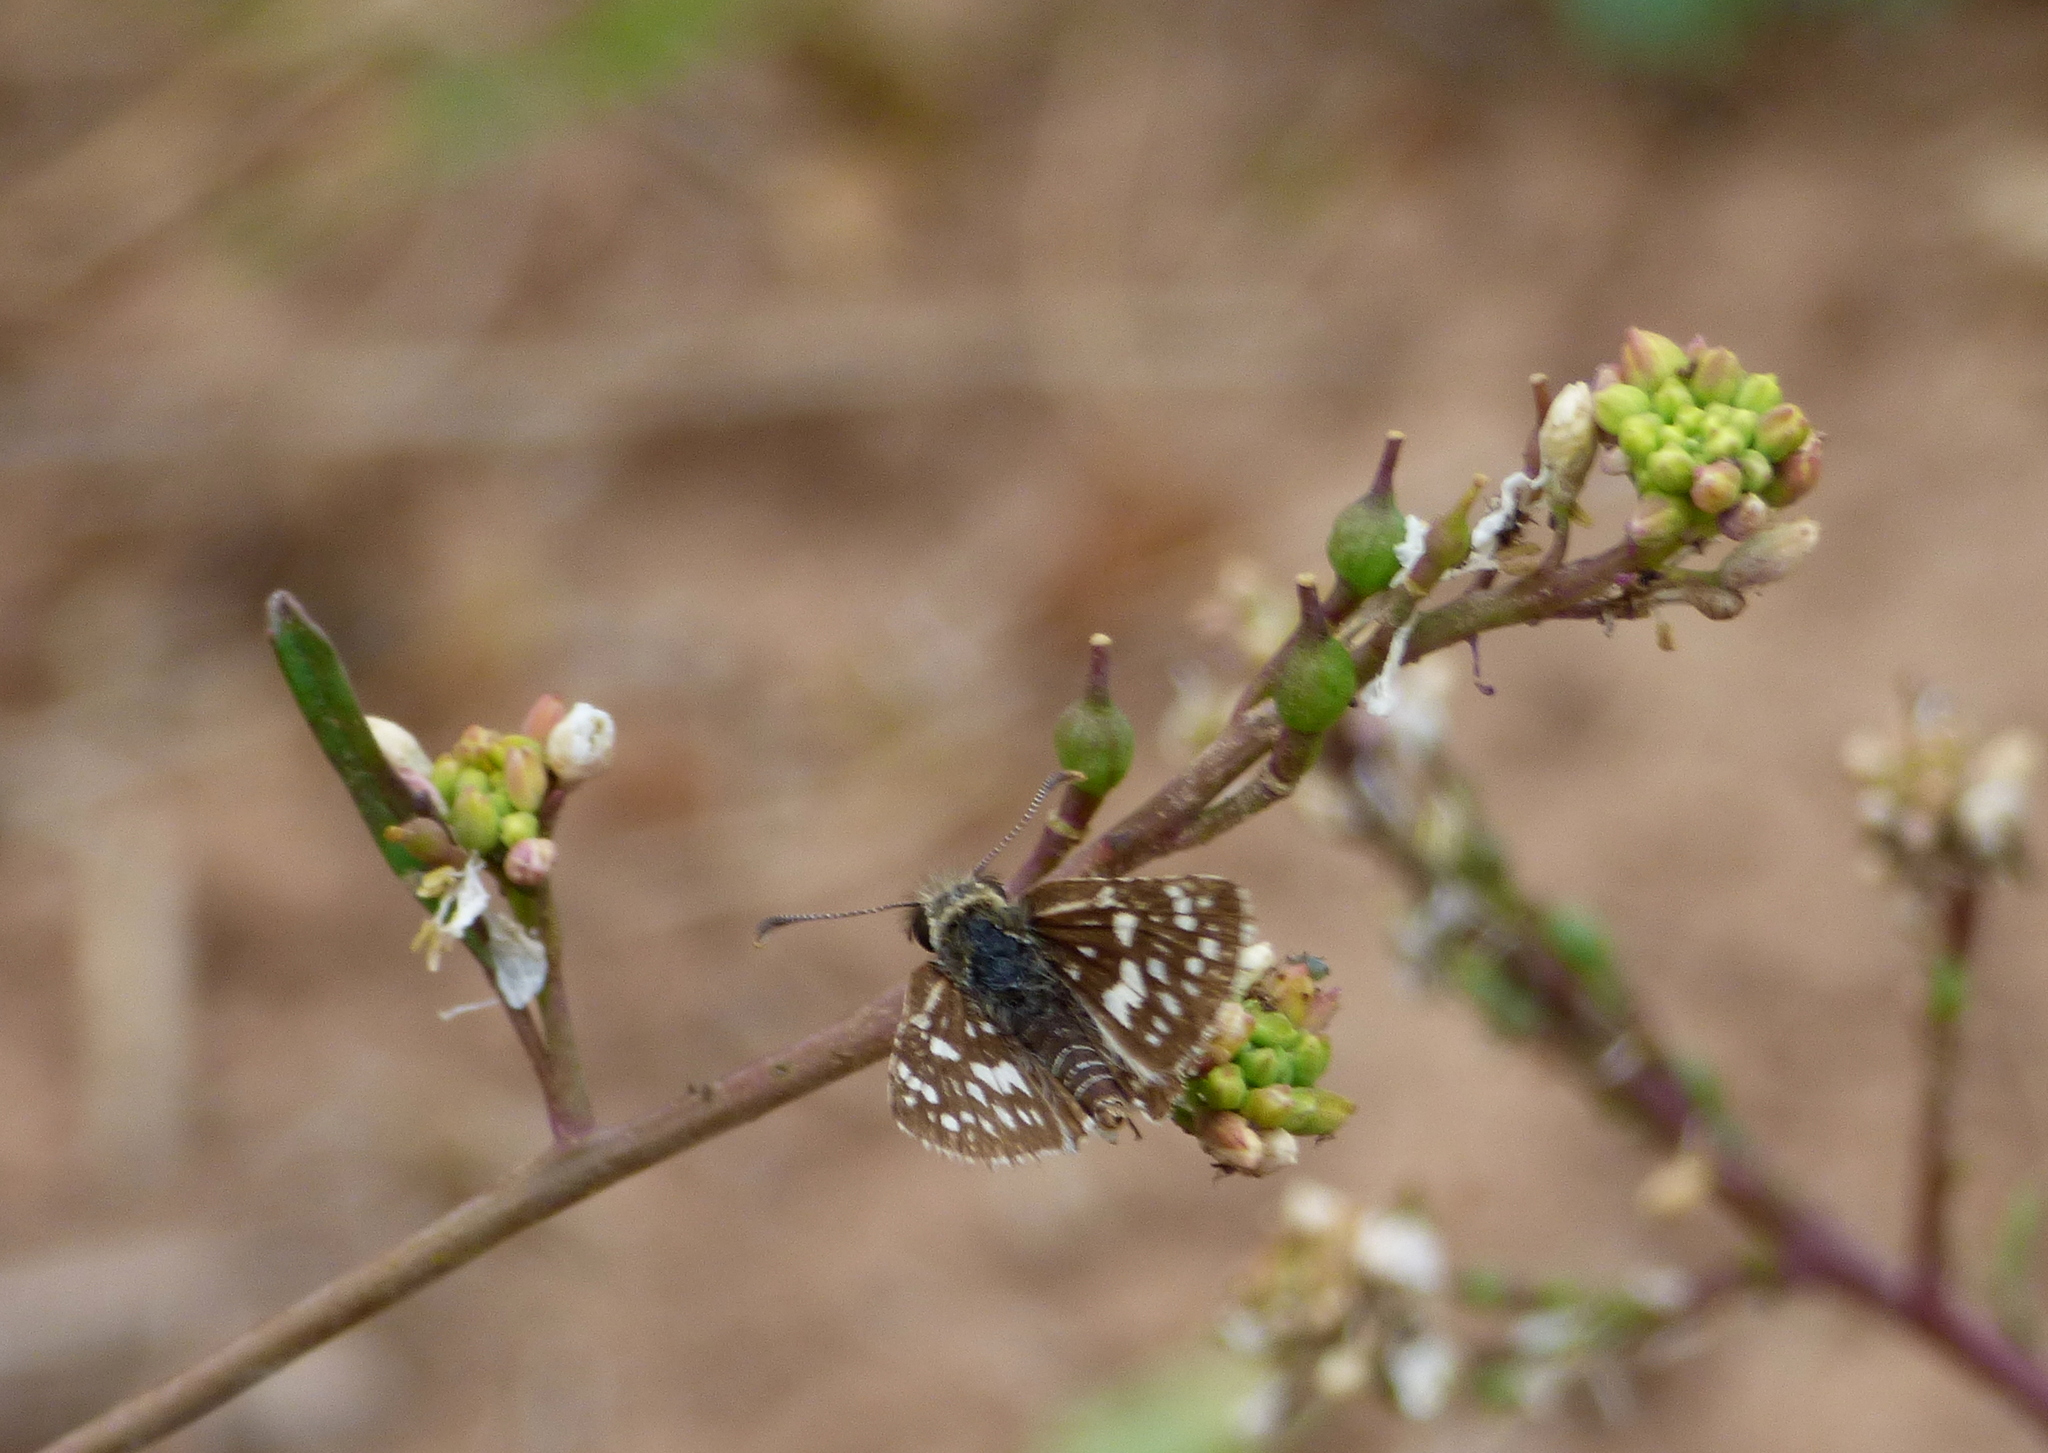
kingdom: Animalia
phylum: Arthropoda
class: Insecta
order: Lepidoptera
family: Hesperiidae
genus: Burnsius
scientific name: Burnsius orcynoides
